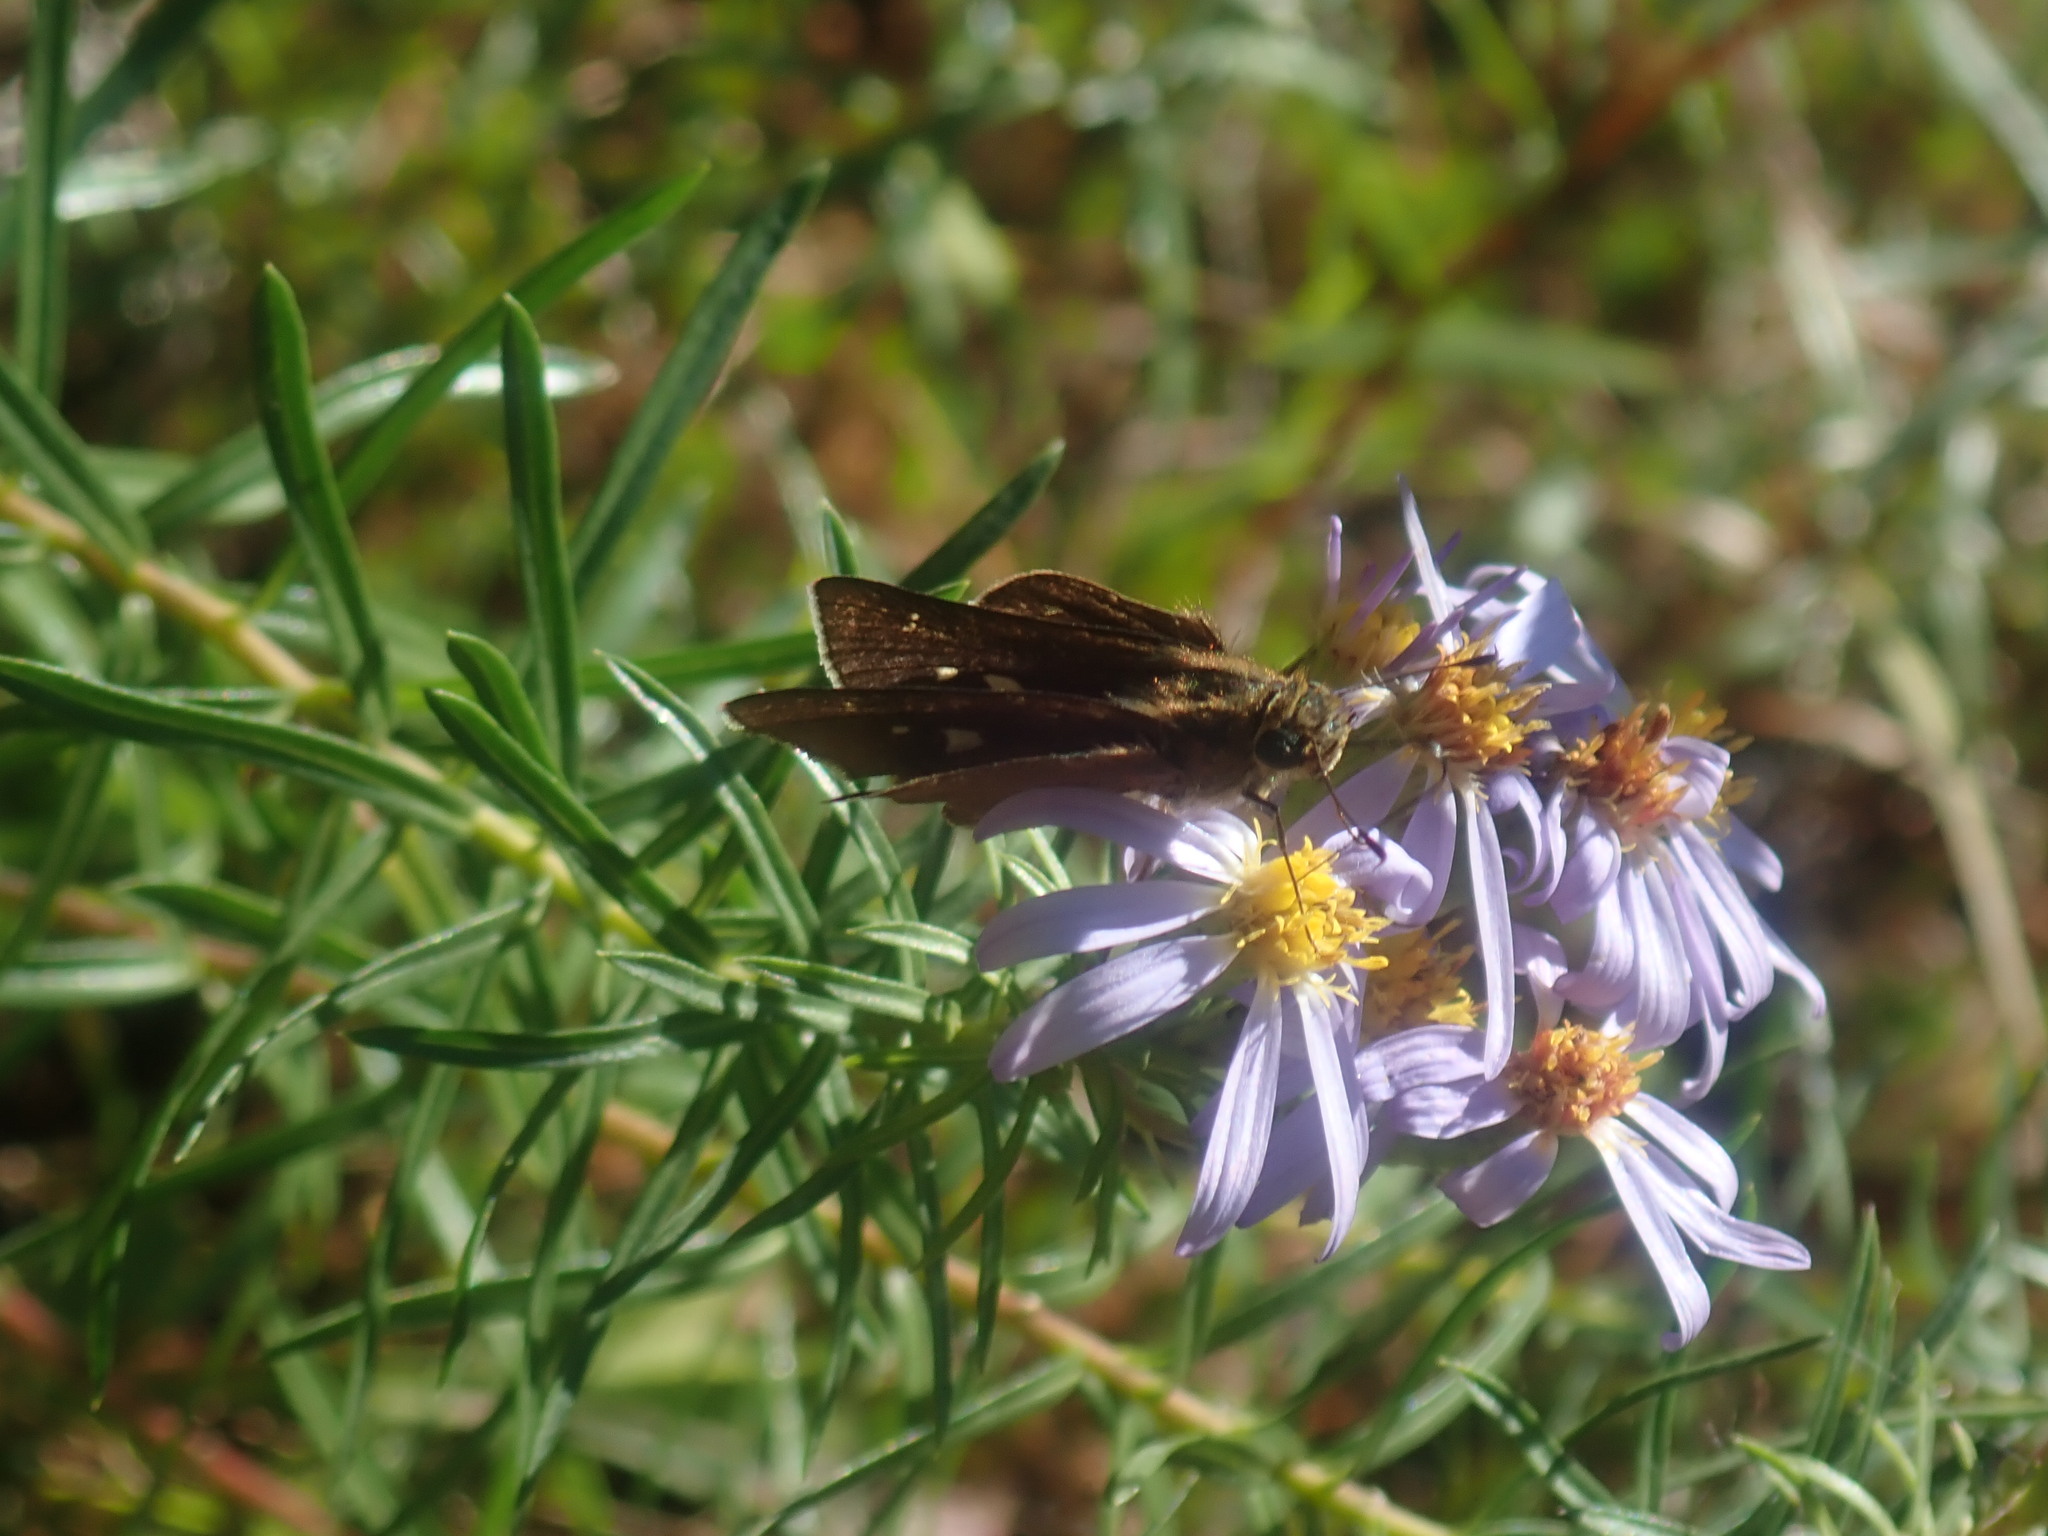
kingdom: Animalia
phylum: Arthropoda
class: Insecta
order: Lepidoptera
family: Hesperiidae
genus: Panoquina
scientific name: Panoquina ocola
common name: Ocola skipper
